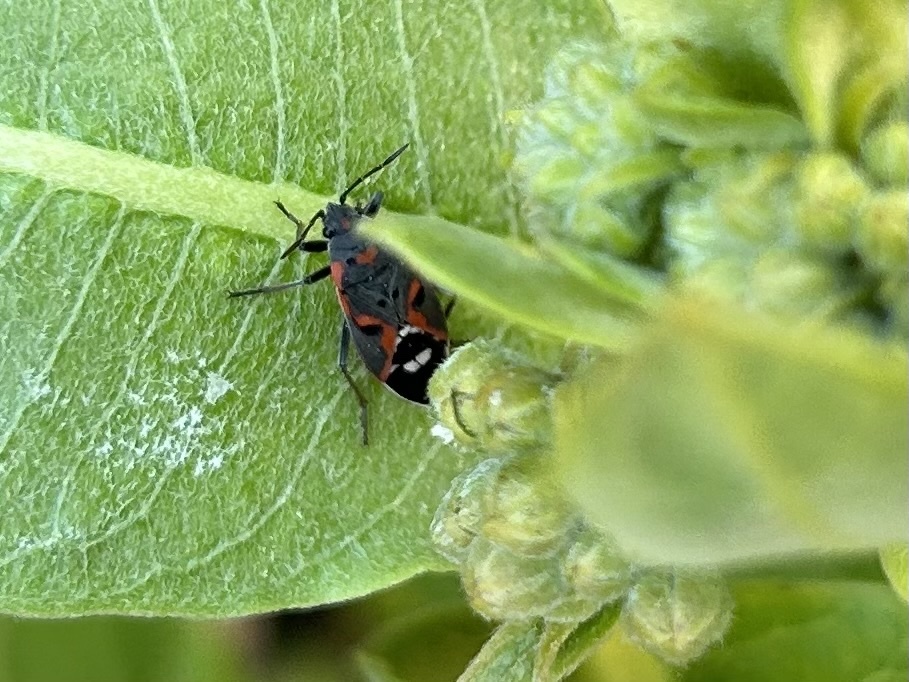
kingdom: Animalia
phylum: Arthropoda
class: Insecta
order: Hemiptera
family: Lygaeidae
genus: Lygaeus
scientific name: Lygaeus kalmii
